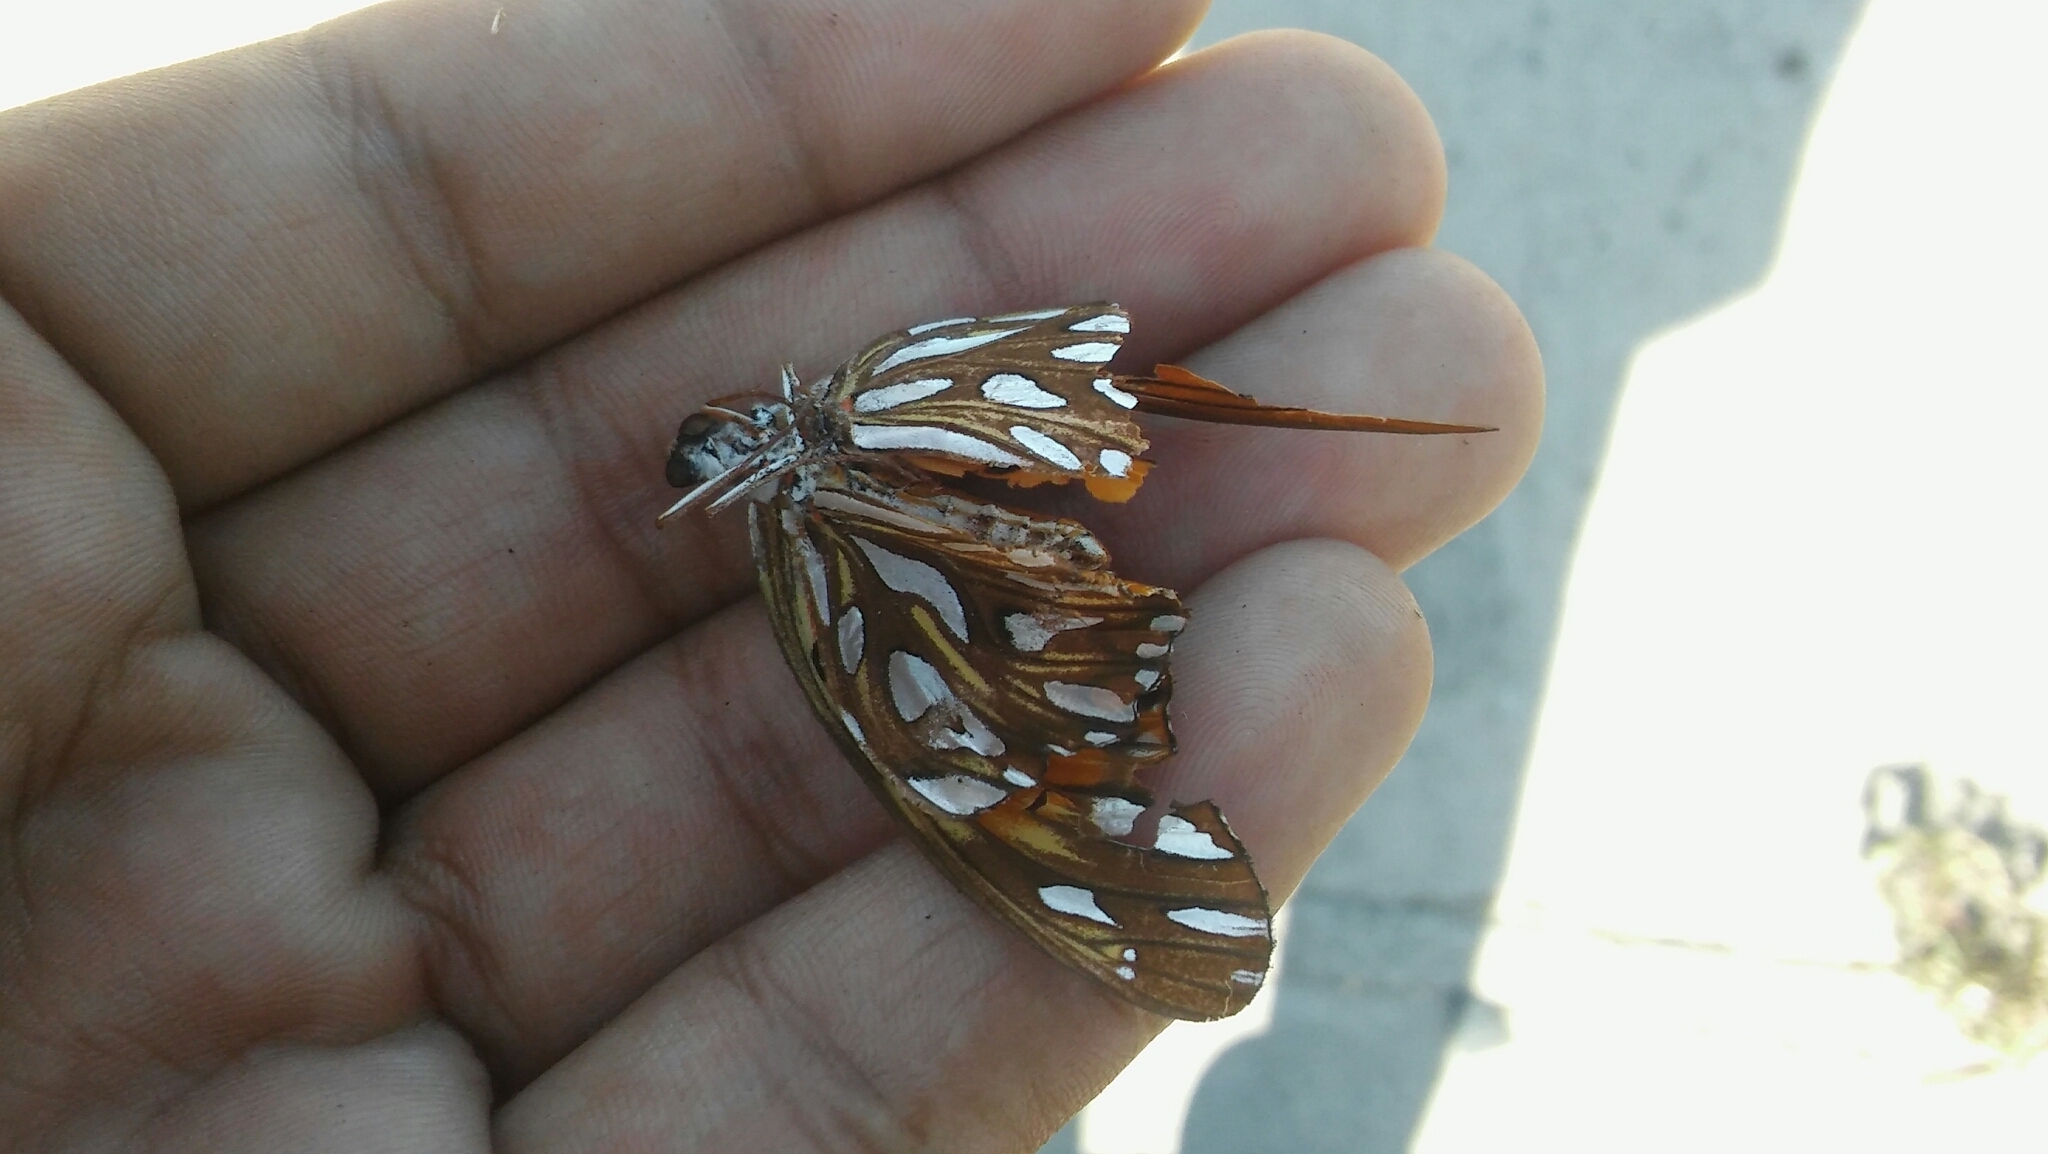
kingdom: Animalia
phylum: Arthropoda
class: Insecta
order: Lepidoptera
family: Nymphalidae
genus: Dione
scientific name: Dione vanillae
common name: Gulf fritillary
